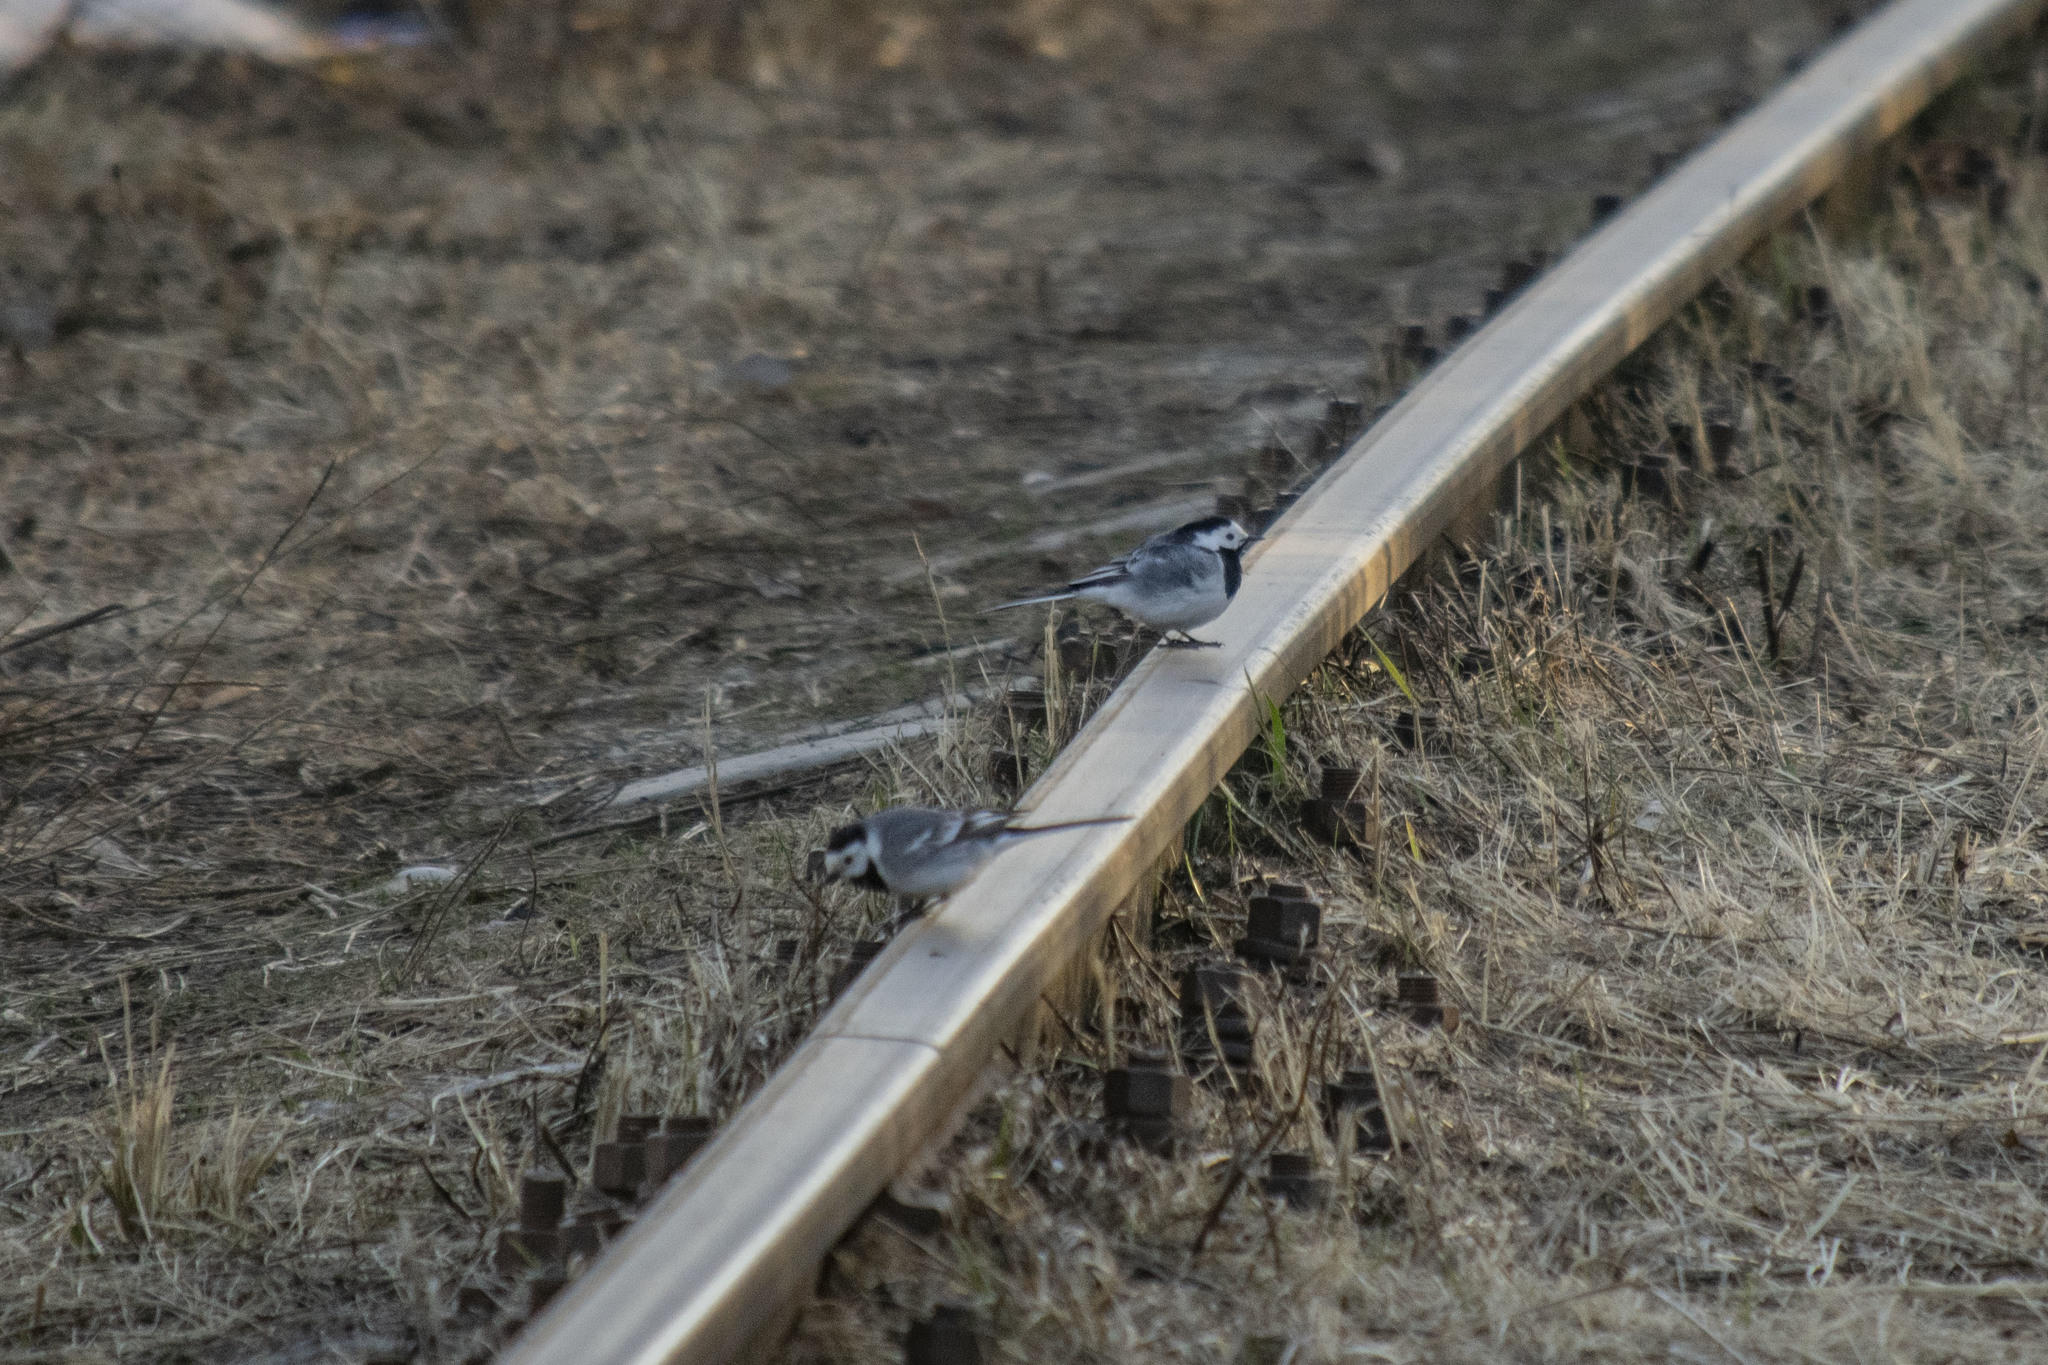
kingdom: Animalia
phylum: Chordata
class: Aves
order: Passeriformes
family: Motacillidae
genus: Motacilla
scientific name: Motacilla alba
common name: White wagtail
